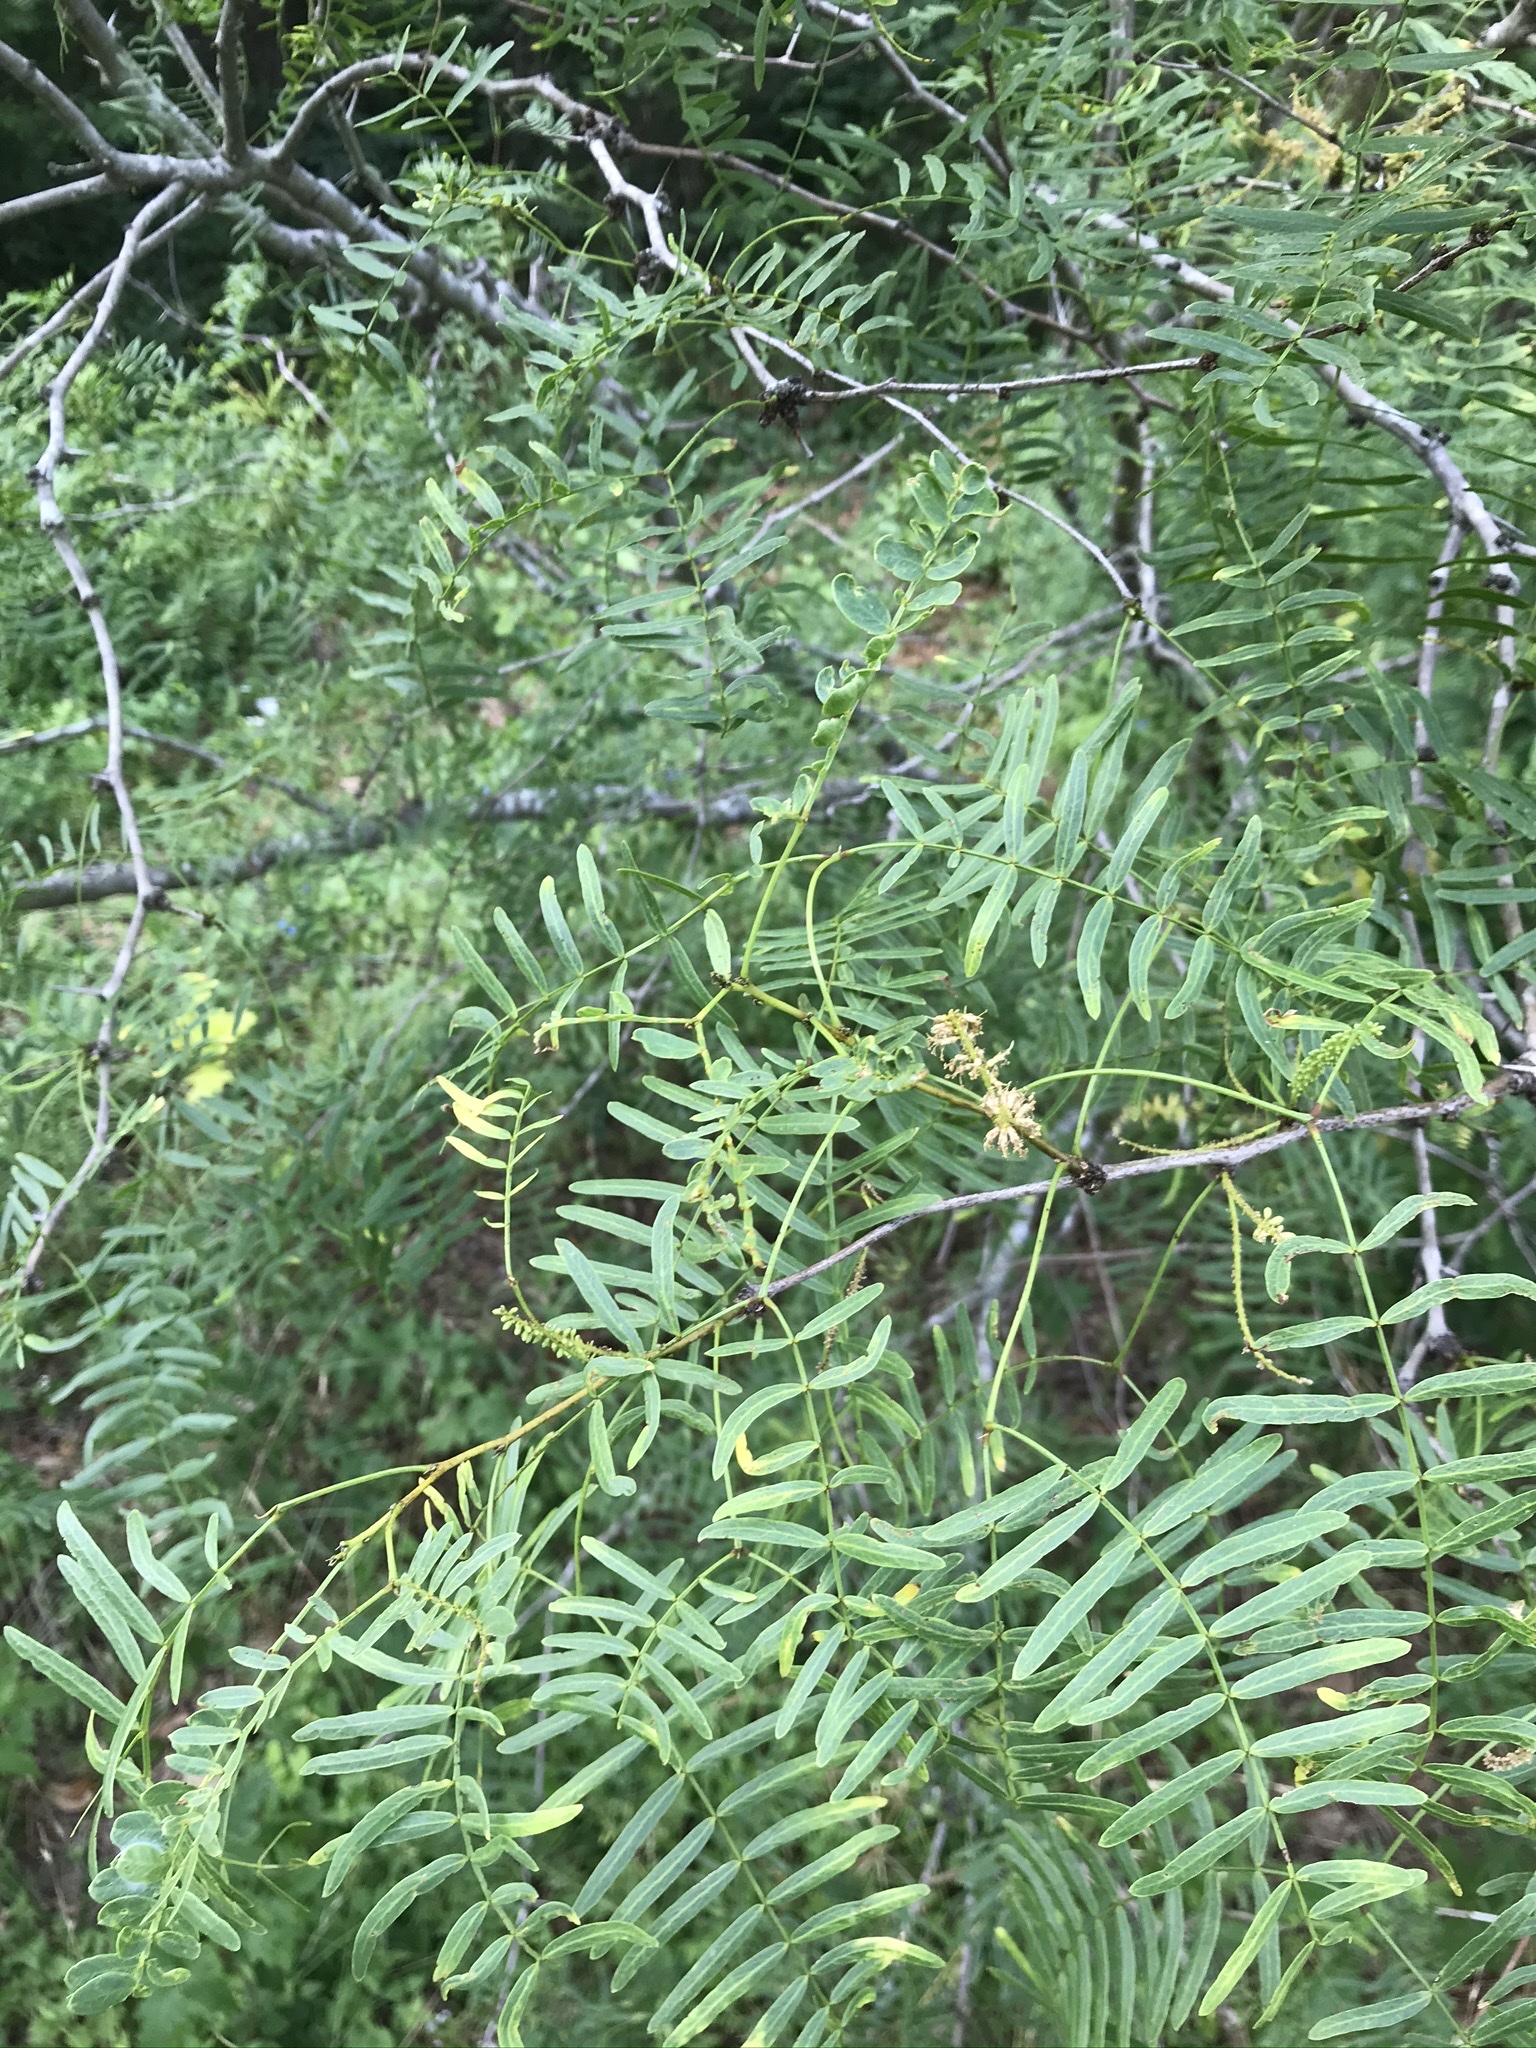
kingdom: Plantae
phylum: Tracheophyta
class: Magnoliopsida
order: Fabales
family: Fabaceae
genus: Prosopis
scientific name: Prosopis glandulosa
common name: Honey mesquite
